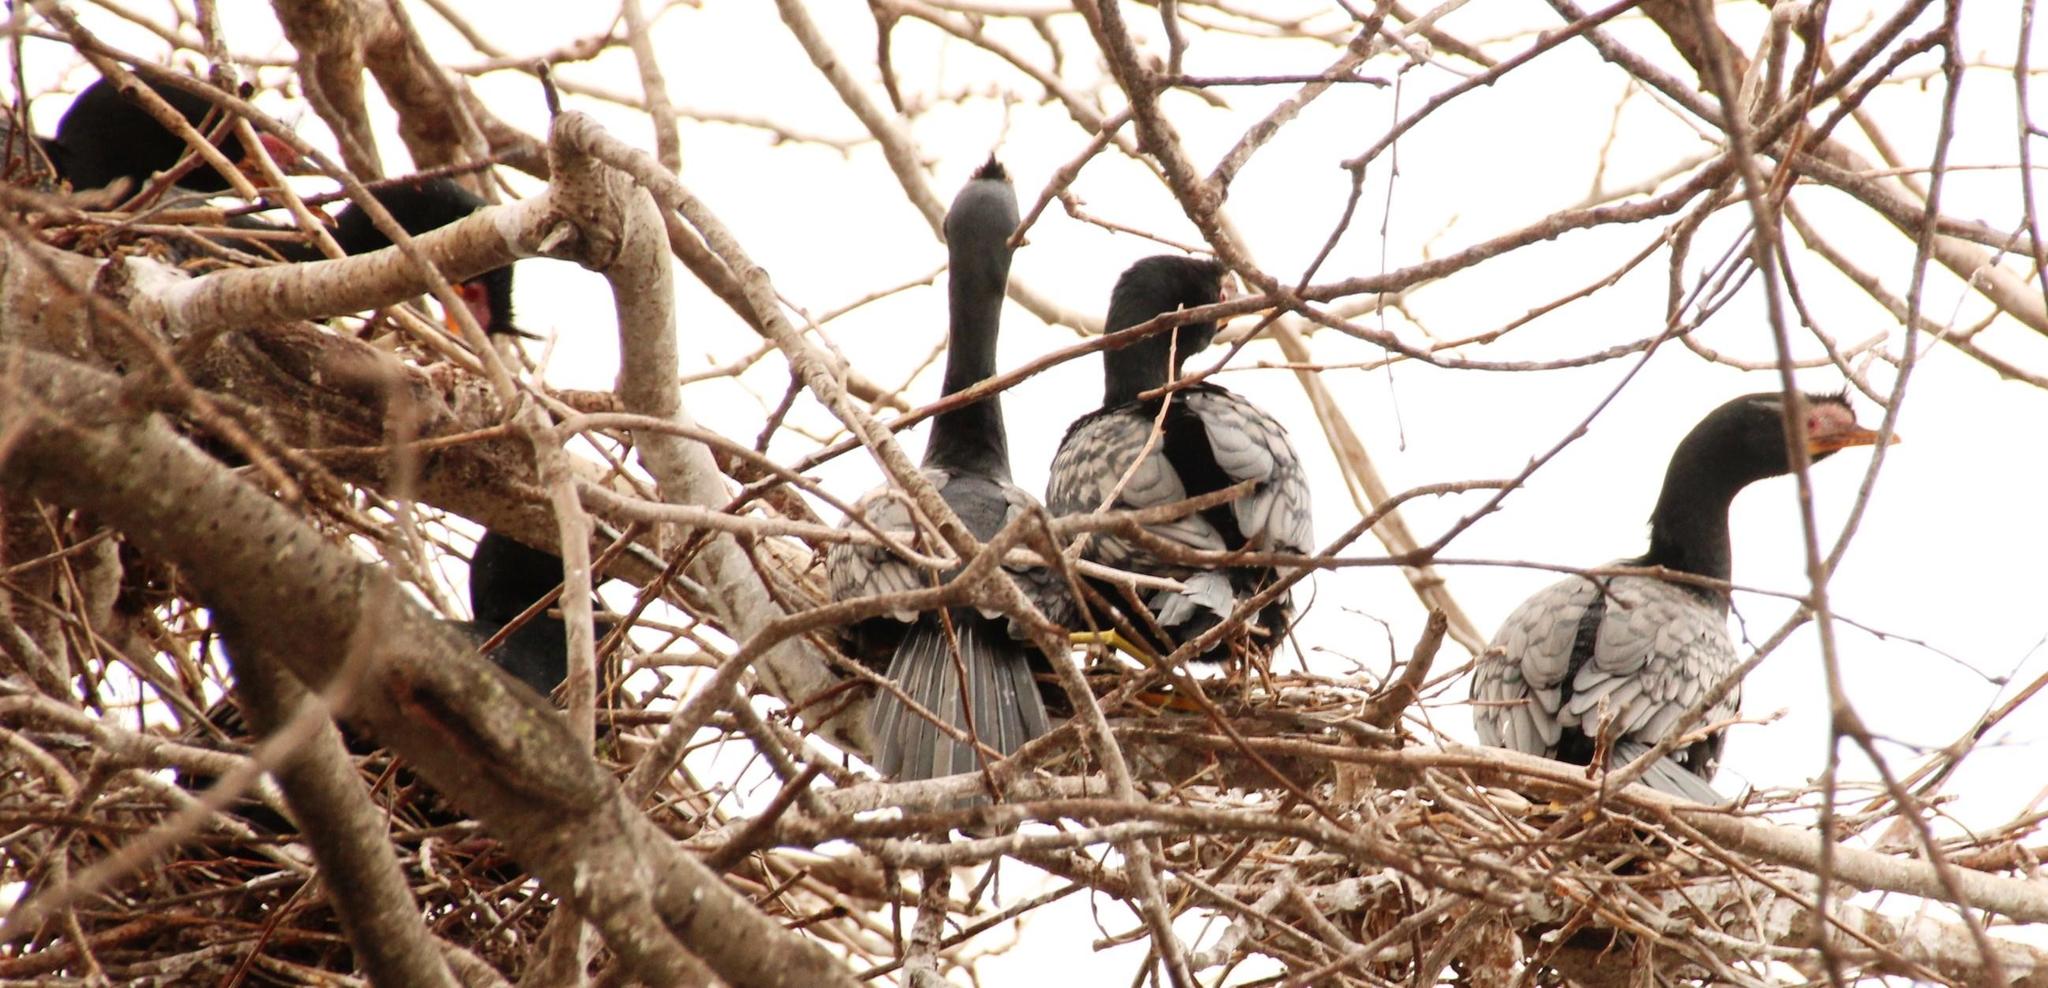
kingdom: Animalia
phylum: Chordata
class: Aves
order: Suliformes
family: Phalacrocoracidae
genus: Microcarbo
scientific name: Microcarbo africanus
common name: Long-tailed cormorant
